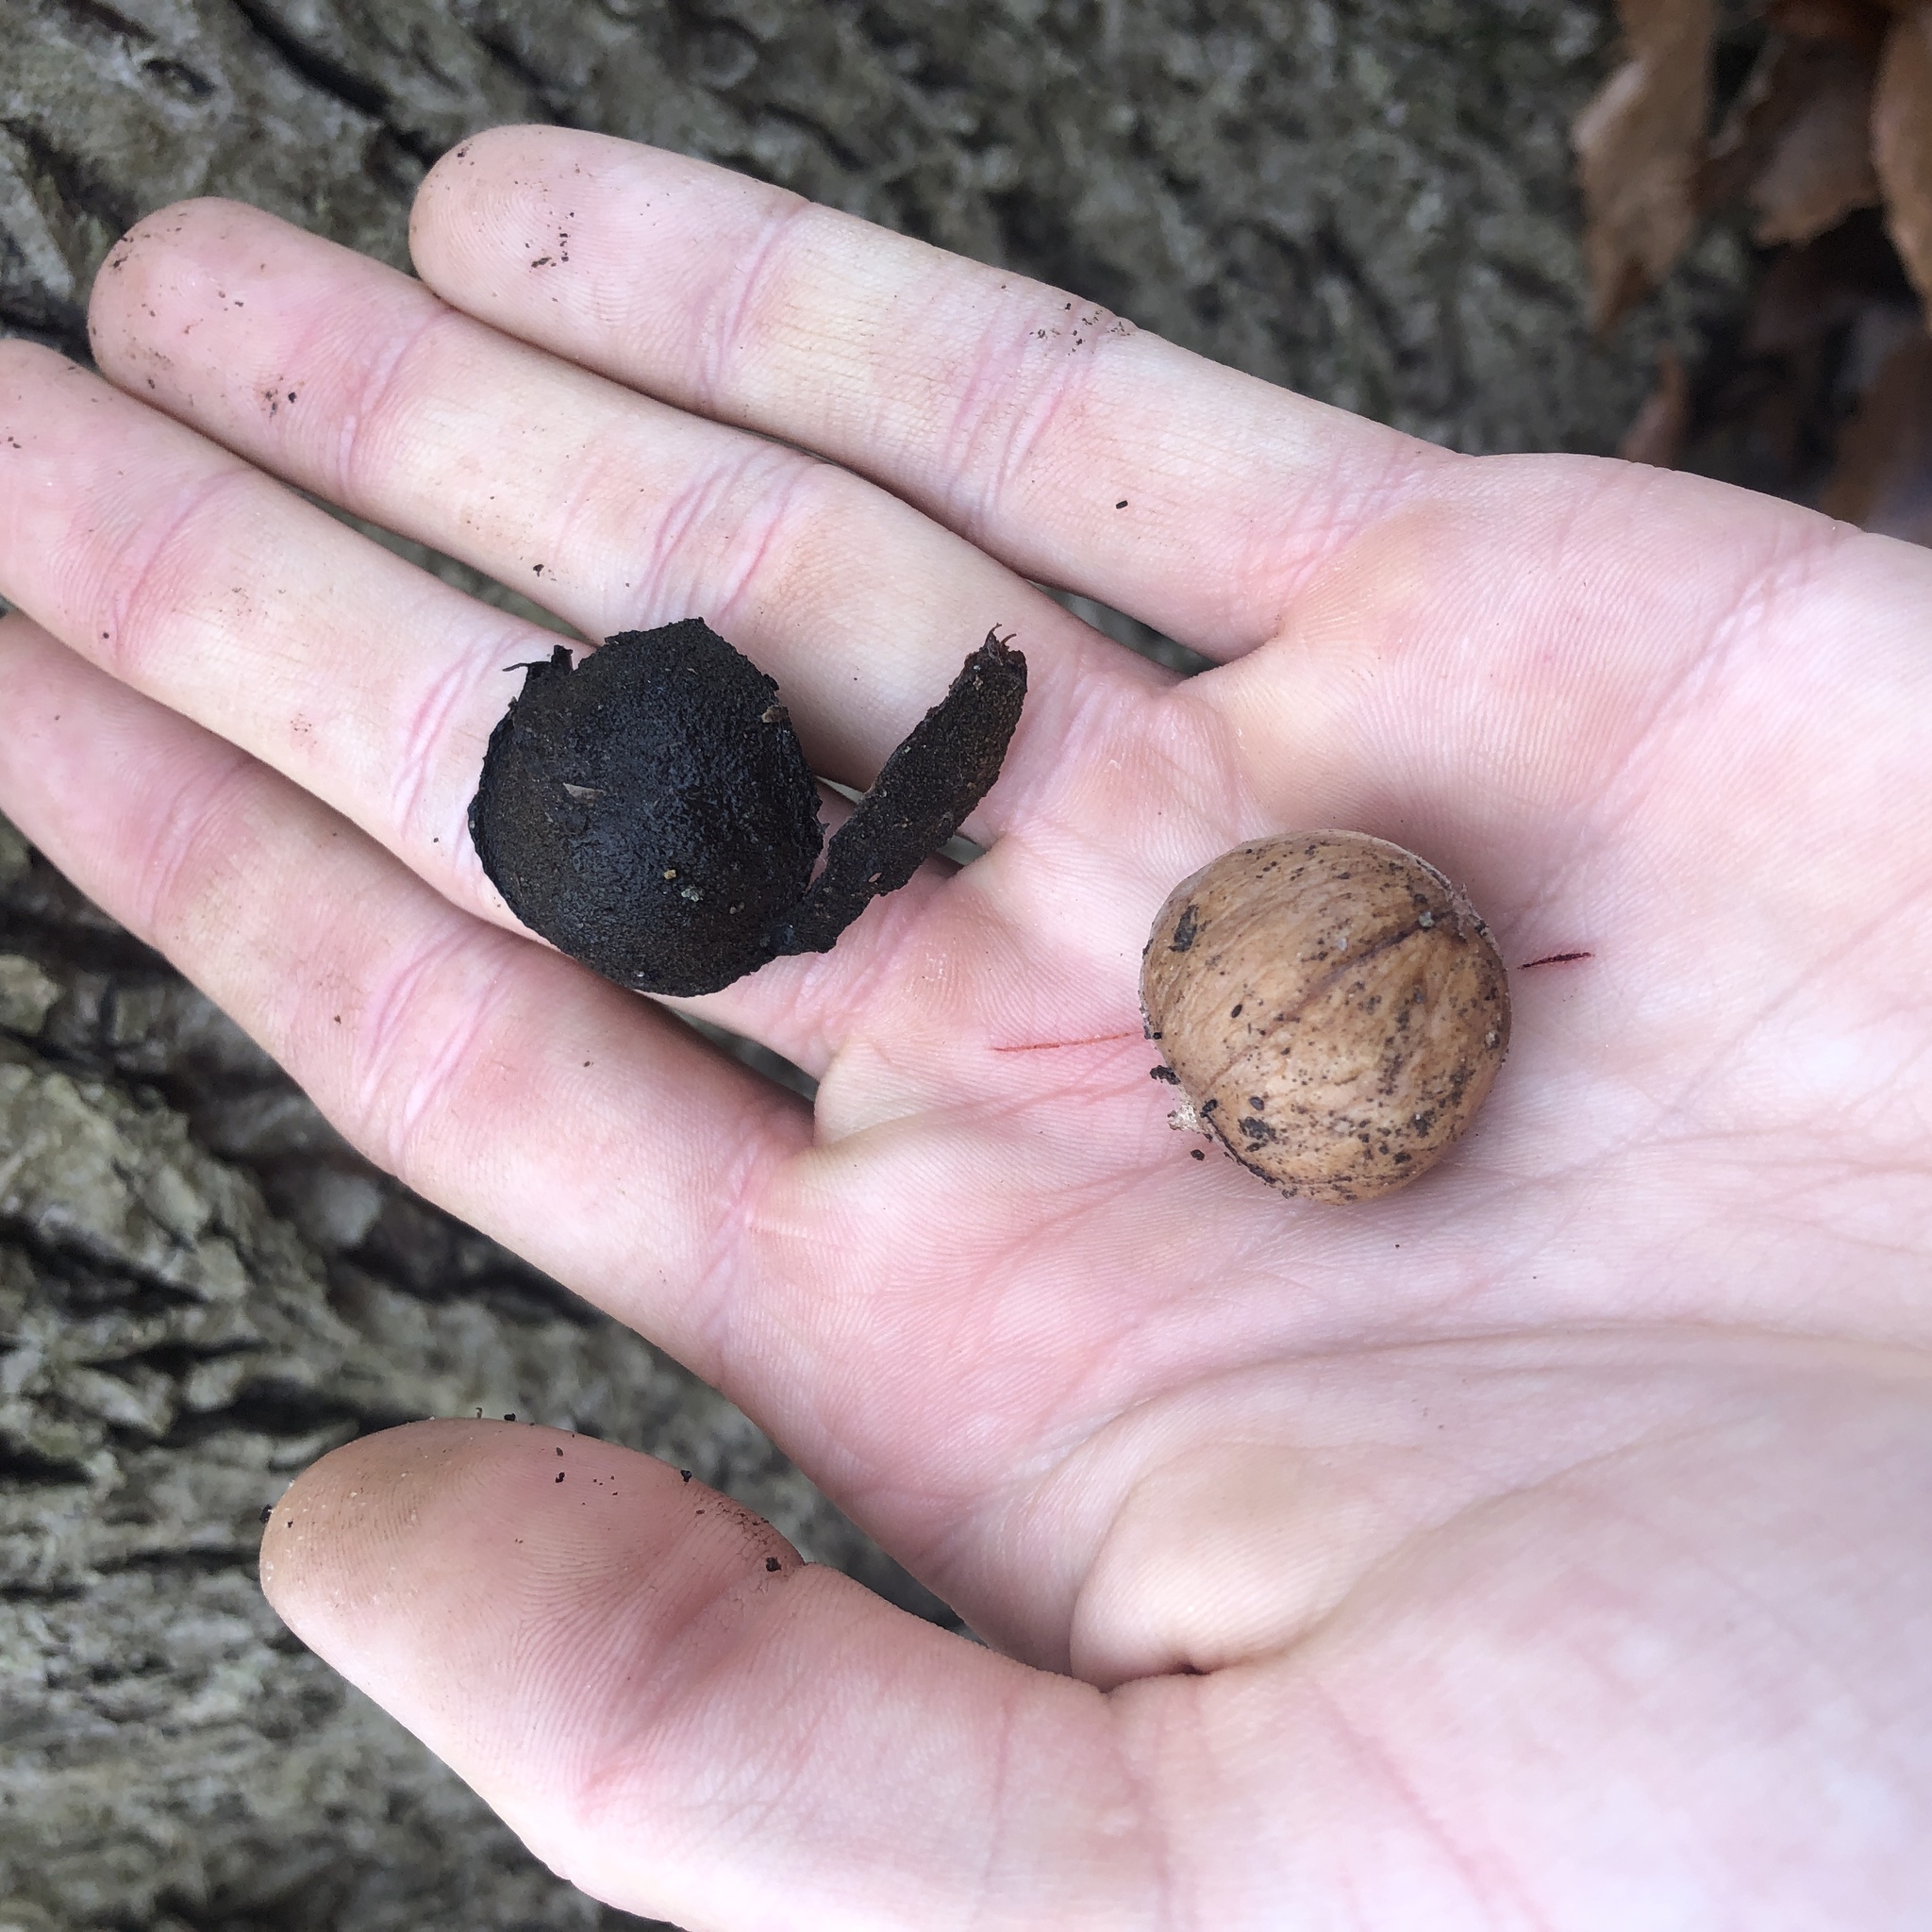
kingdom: Plantae
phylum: Tracheophyta
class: Magnoliopsida
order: Fagales
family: Juglandaceae
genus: Carya
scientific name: Carya cordiformis
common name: Bitternut hickory
